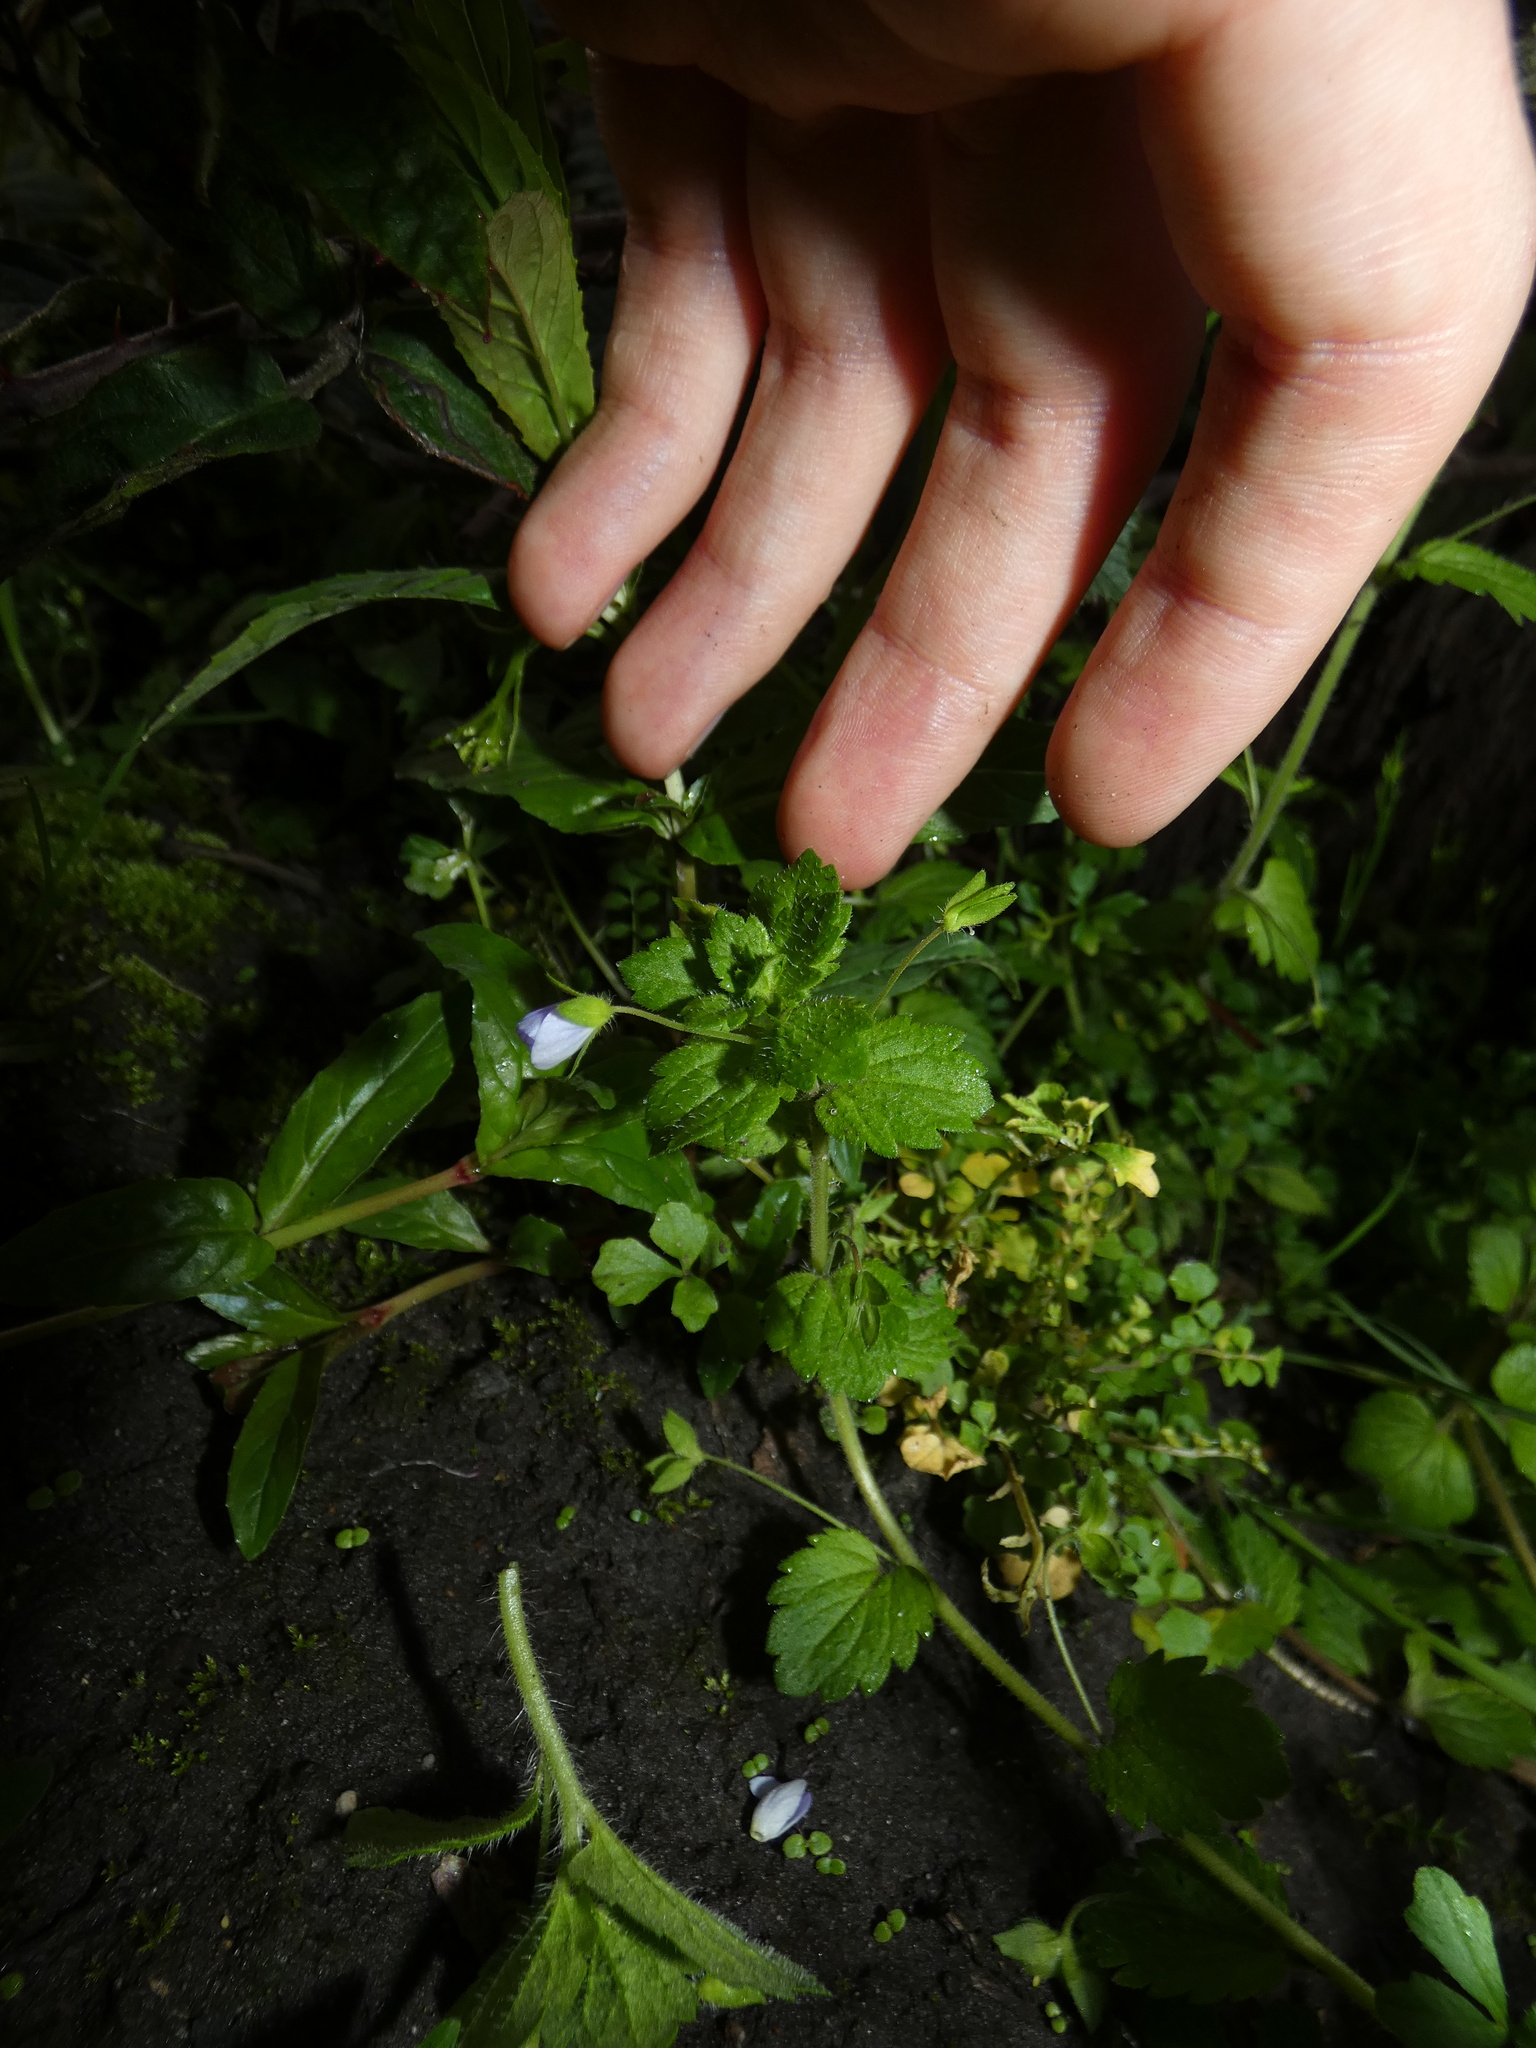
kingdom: Plantae
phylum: Tracheophyta
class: Magnoliopsida
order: Lamiales
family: Plantaginaceae
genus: Veronica
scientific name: Veronica persica
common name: Common field-speedwell
